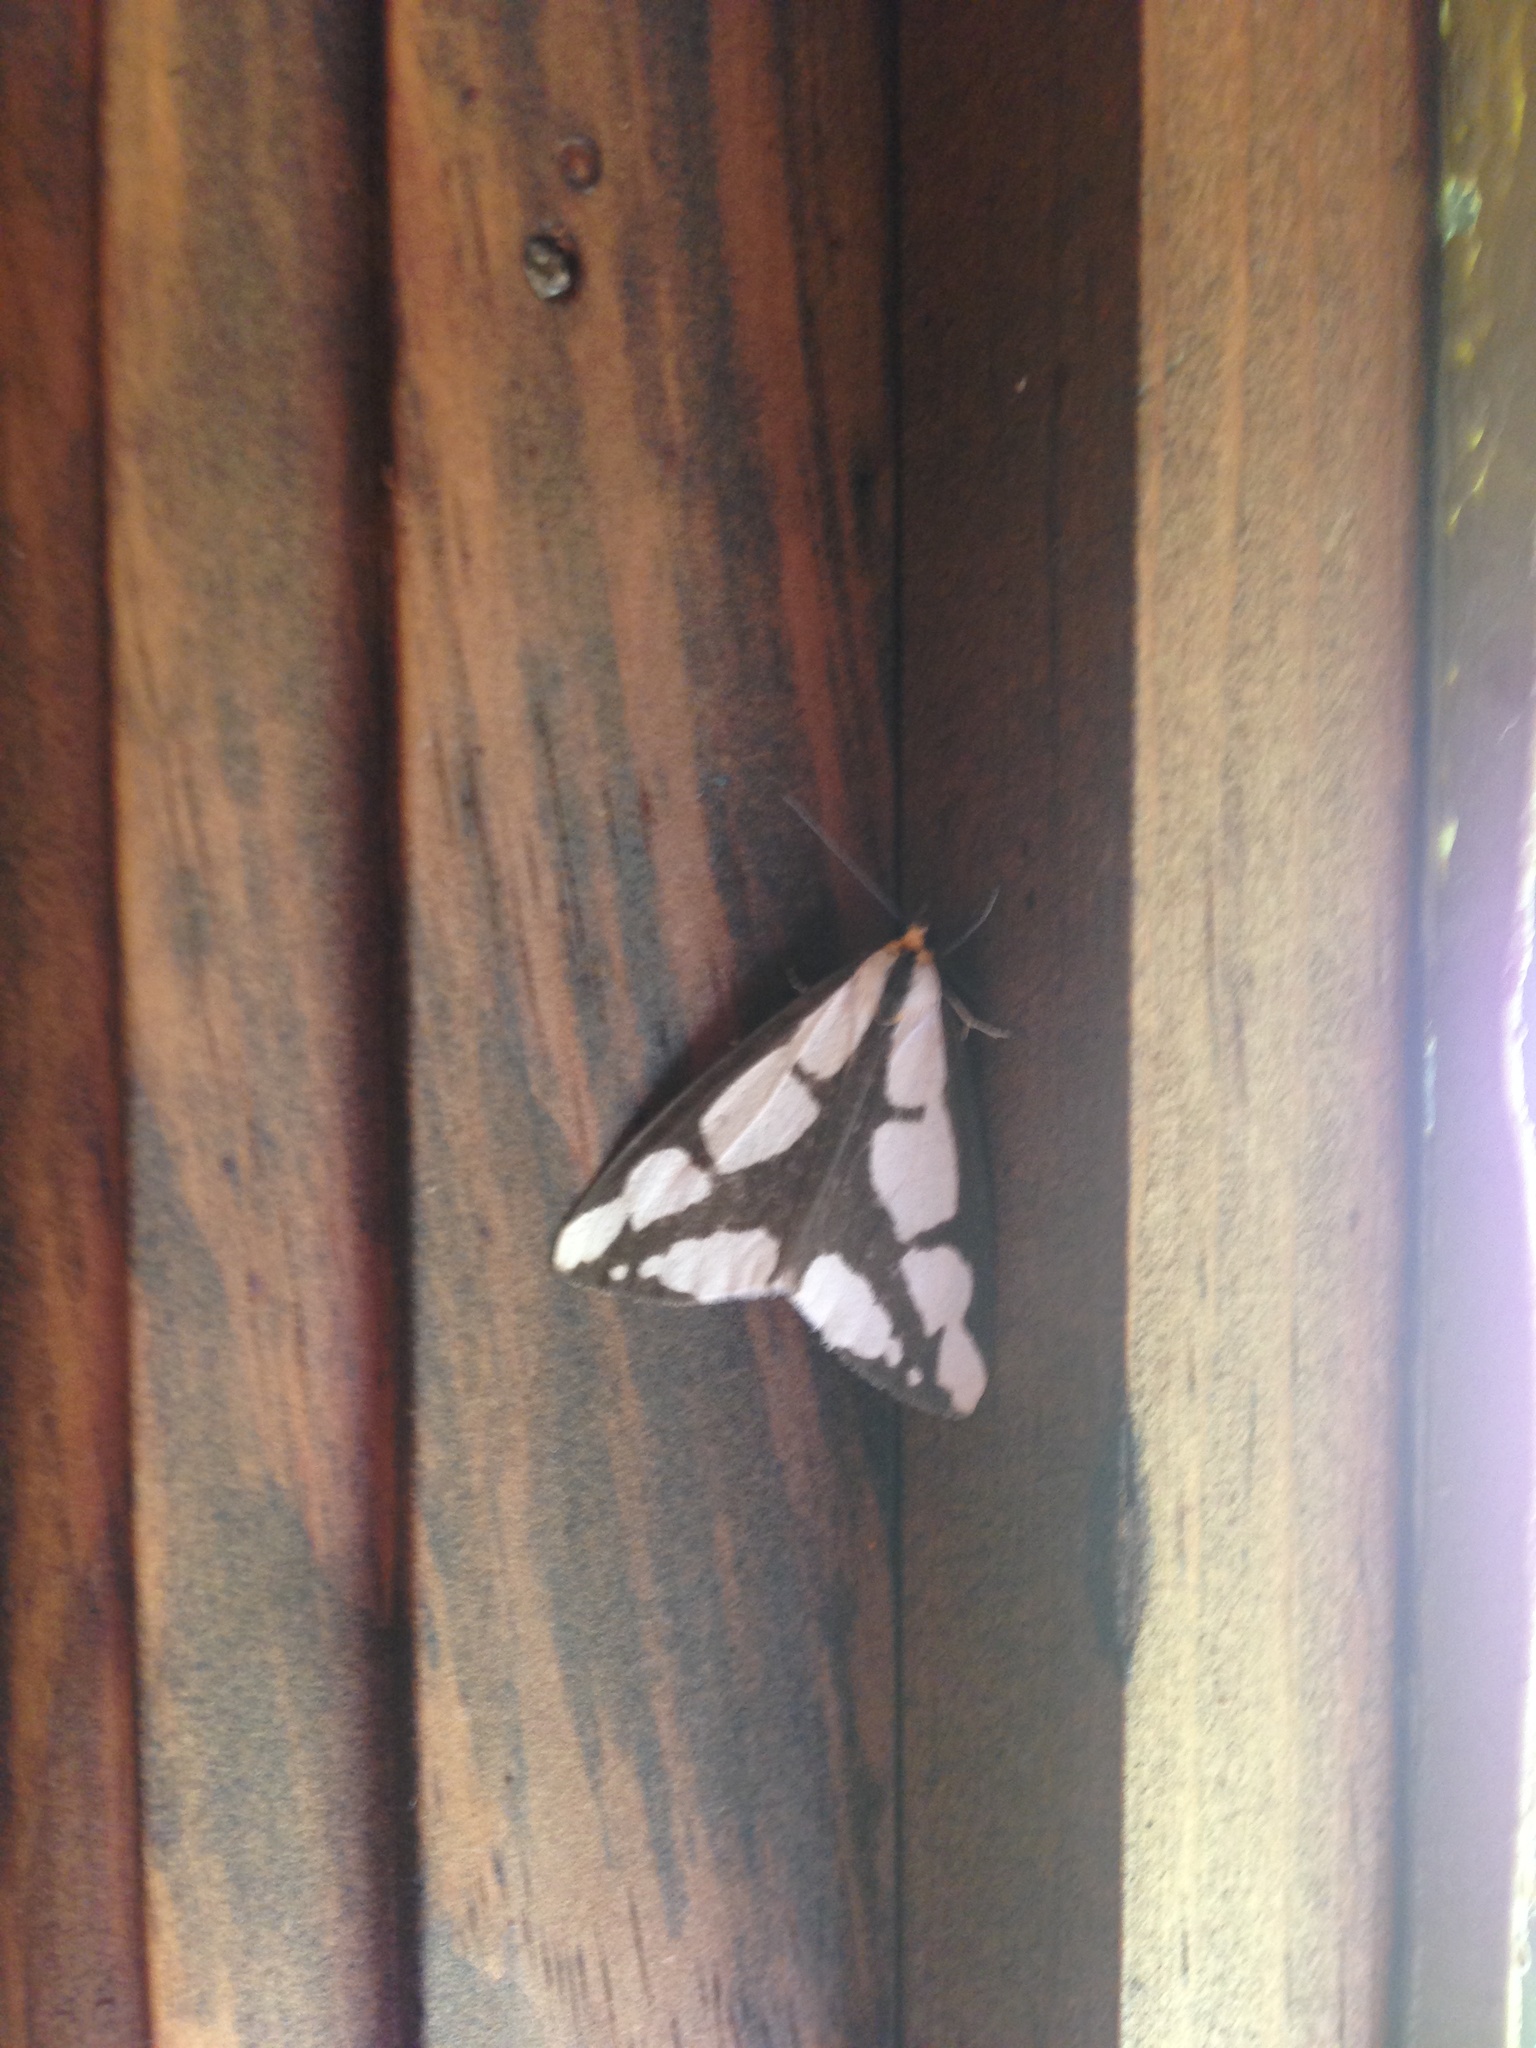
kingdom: Animalia
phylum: Arthropoda
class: Insecta
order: Lepidoptera
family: Erebidae
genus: Haploa
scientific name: Haploa lecontei
